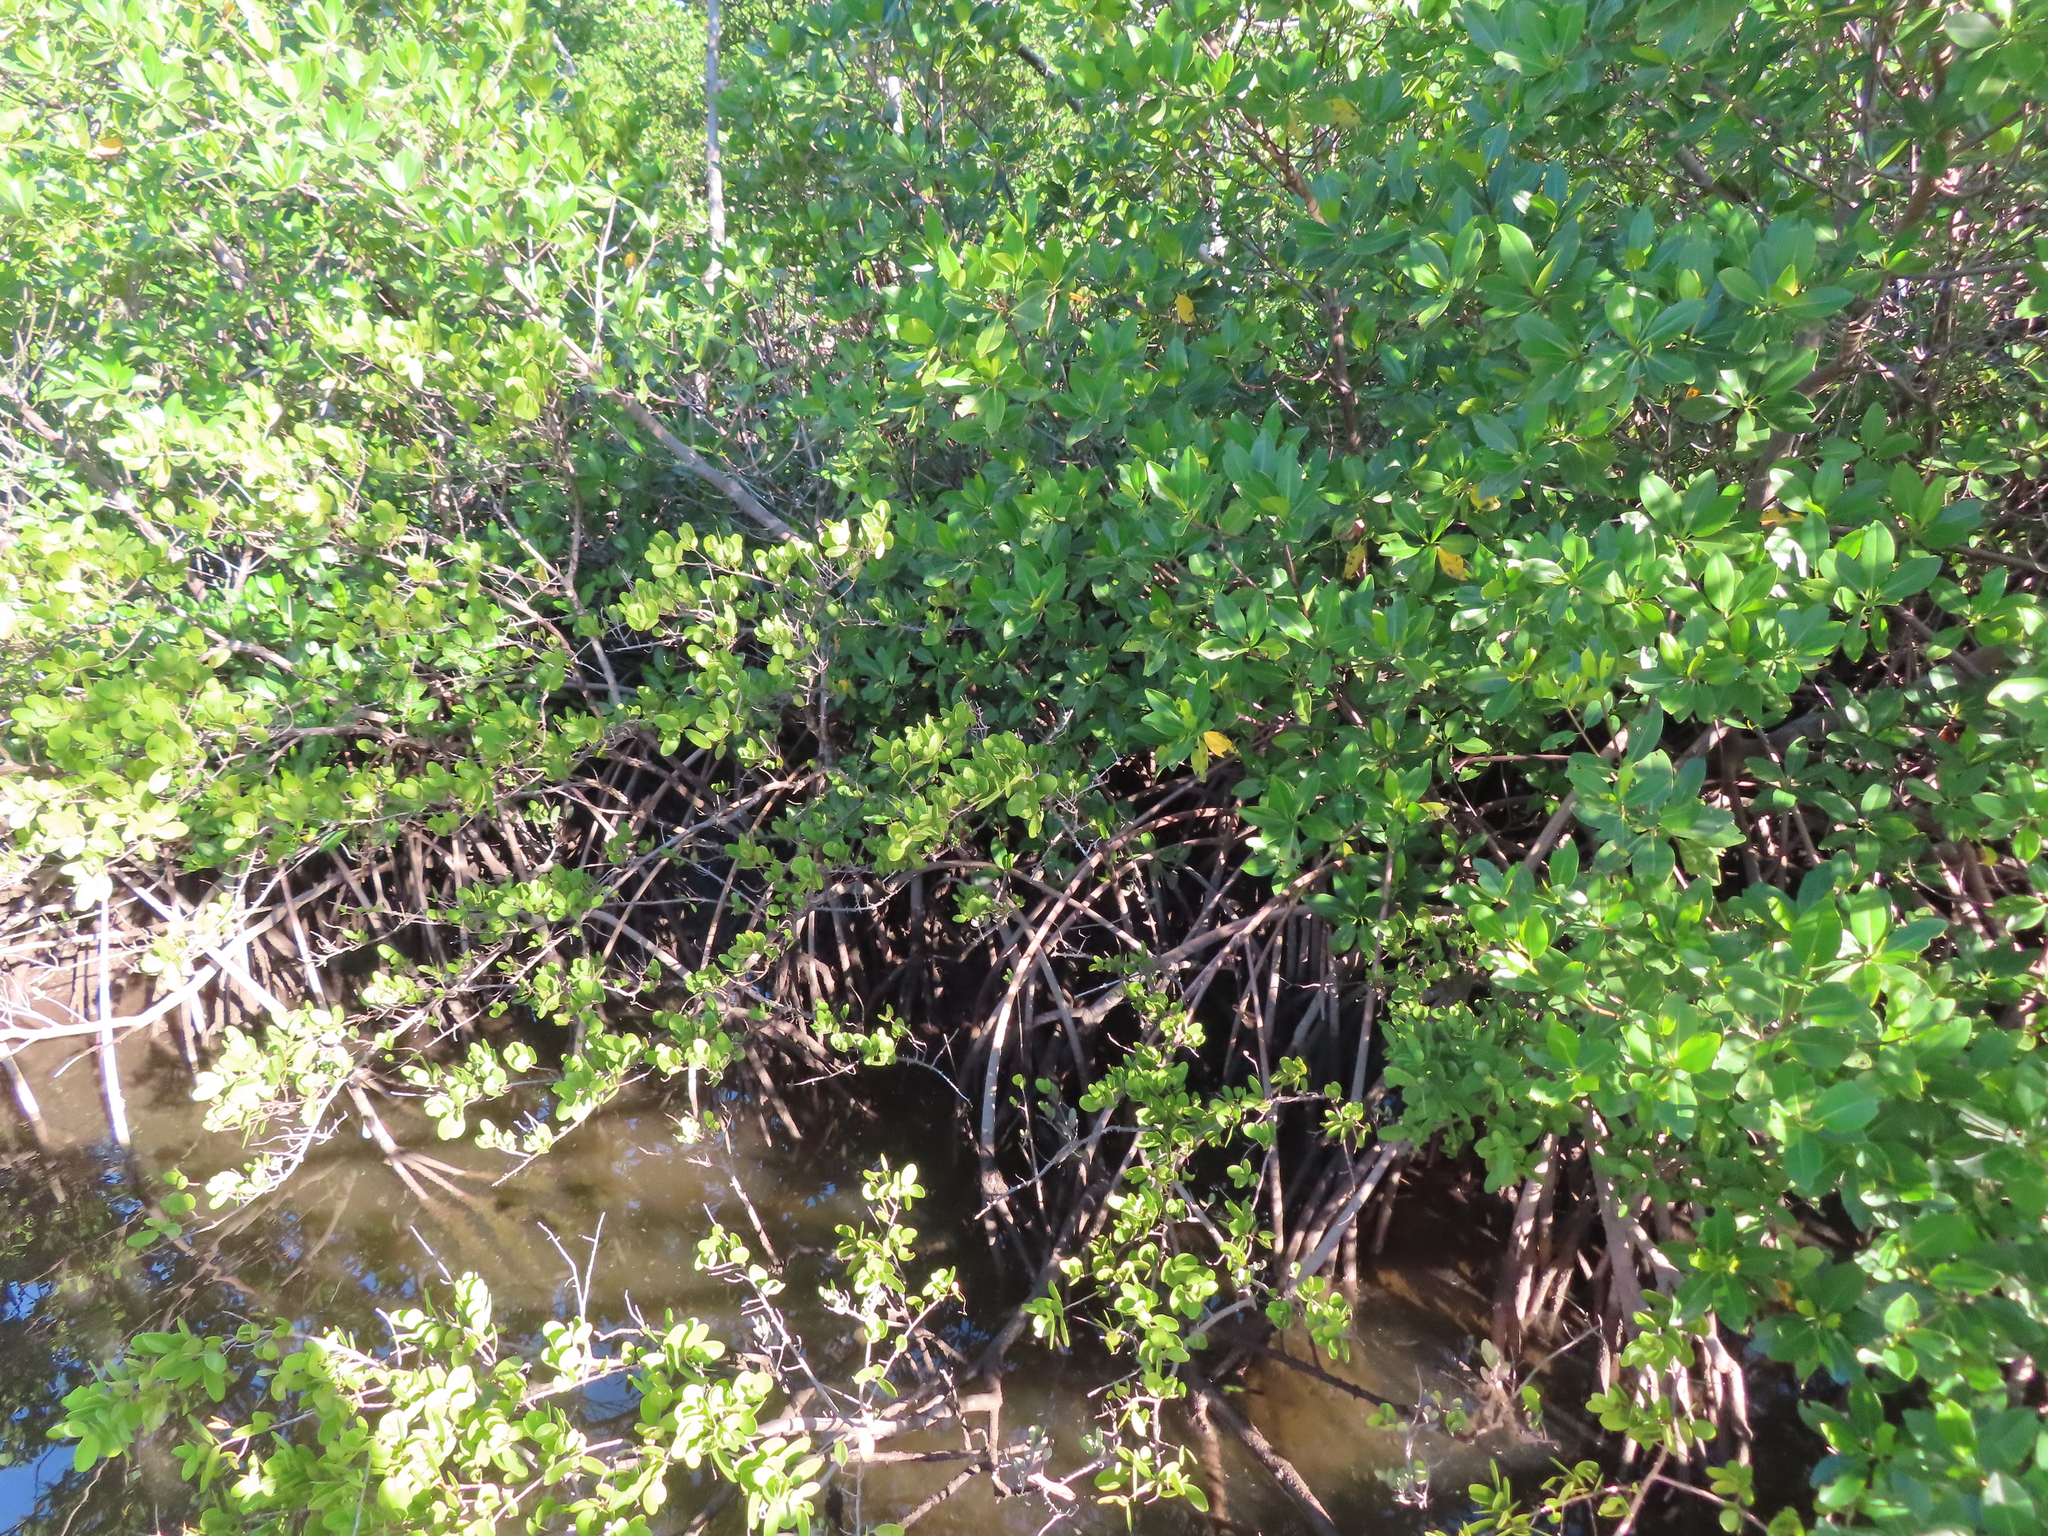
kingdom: Plantae
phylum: Tracheophyta
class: Magnoliopsida
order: Malpighiales
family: Rhizophoraceae
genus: Rhizophora
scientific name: Rhizophora mangle
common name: Red mangrove
